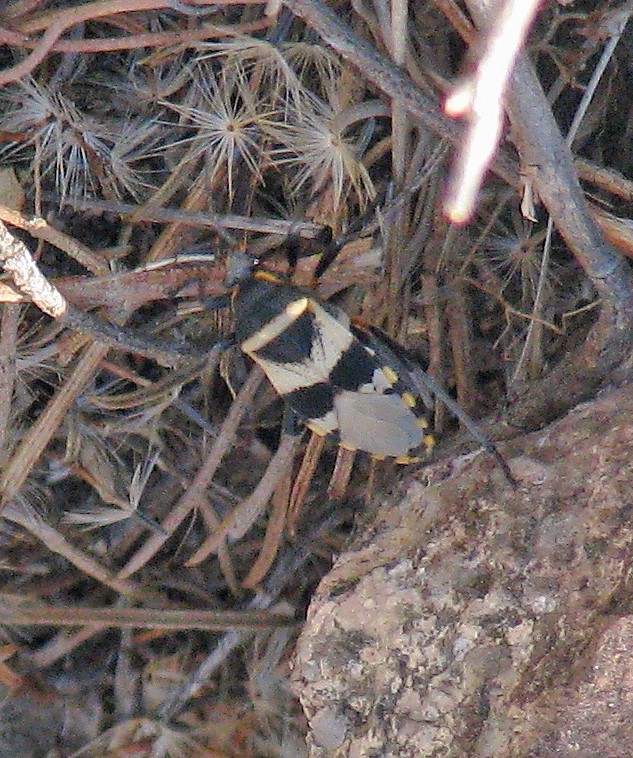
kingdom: Animalia
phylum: Arthropoda
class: Insecta
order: Hemiptera
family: Largidae
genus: Largus
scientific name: Largus fasciatus
